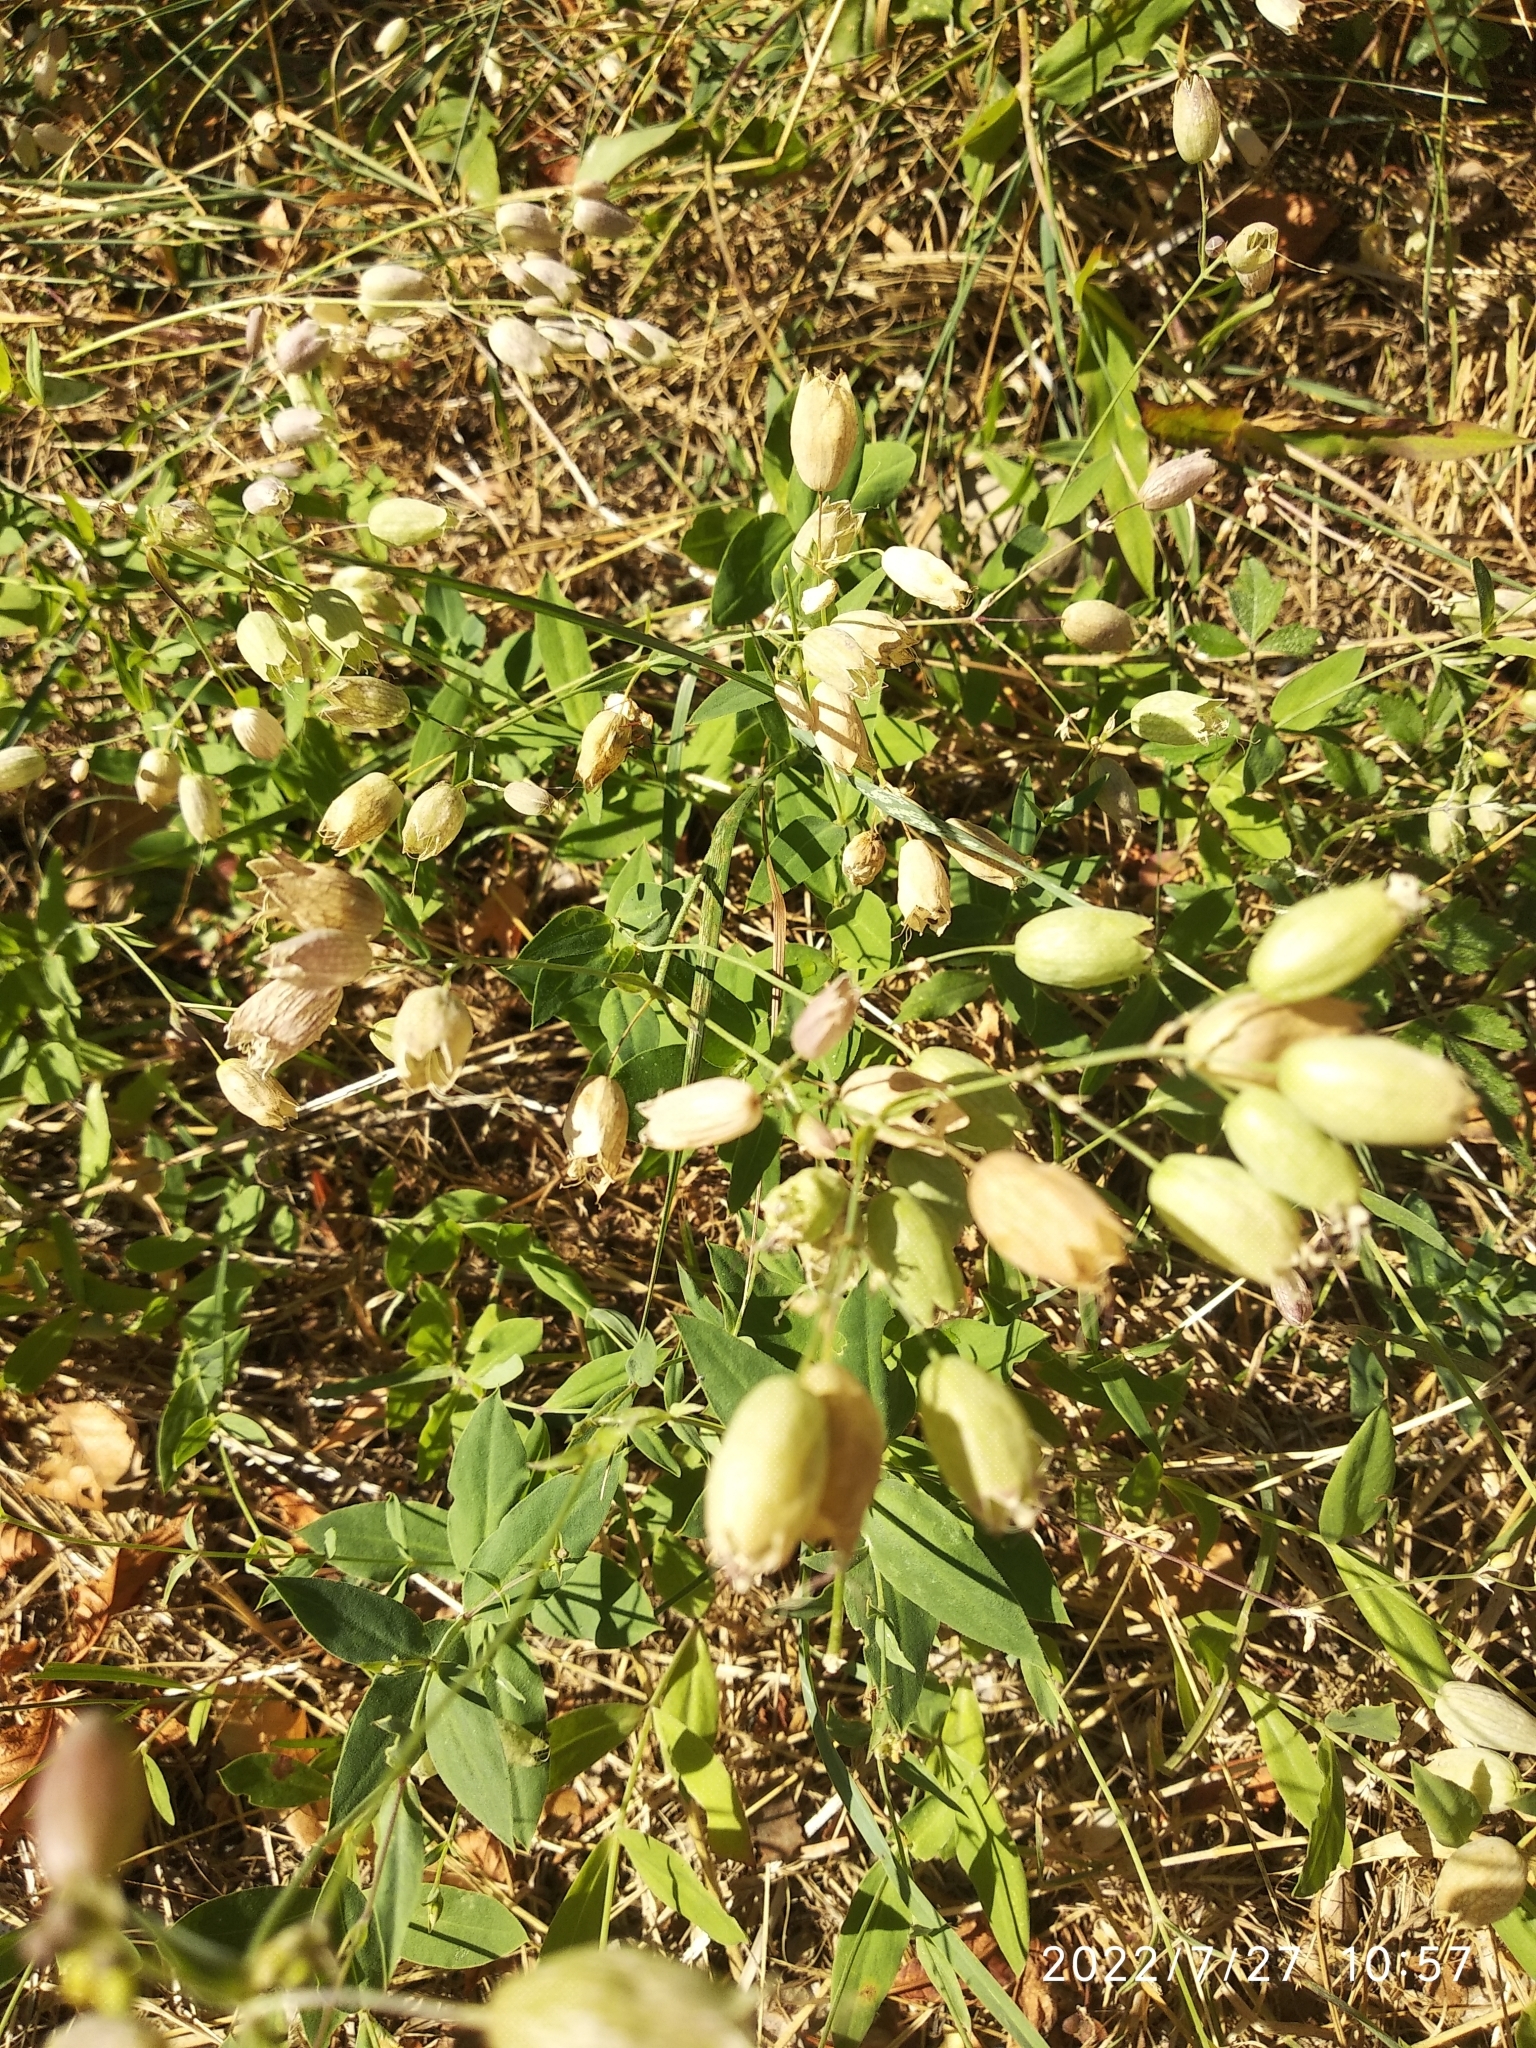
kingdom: Plantae
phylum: Tracheophyta
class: Magnoliopsida
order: Caryophyllales
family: Caryophyllaceae
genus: Silene
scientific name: Silene vulgaris
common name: Bladder campion
